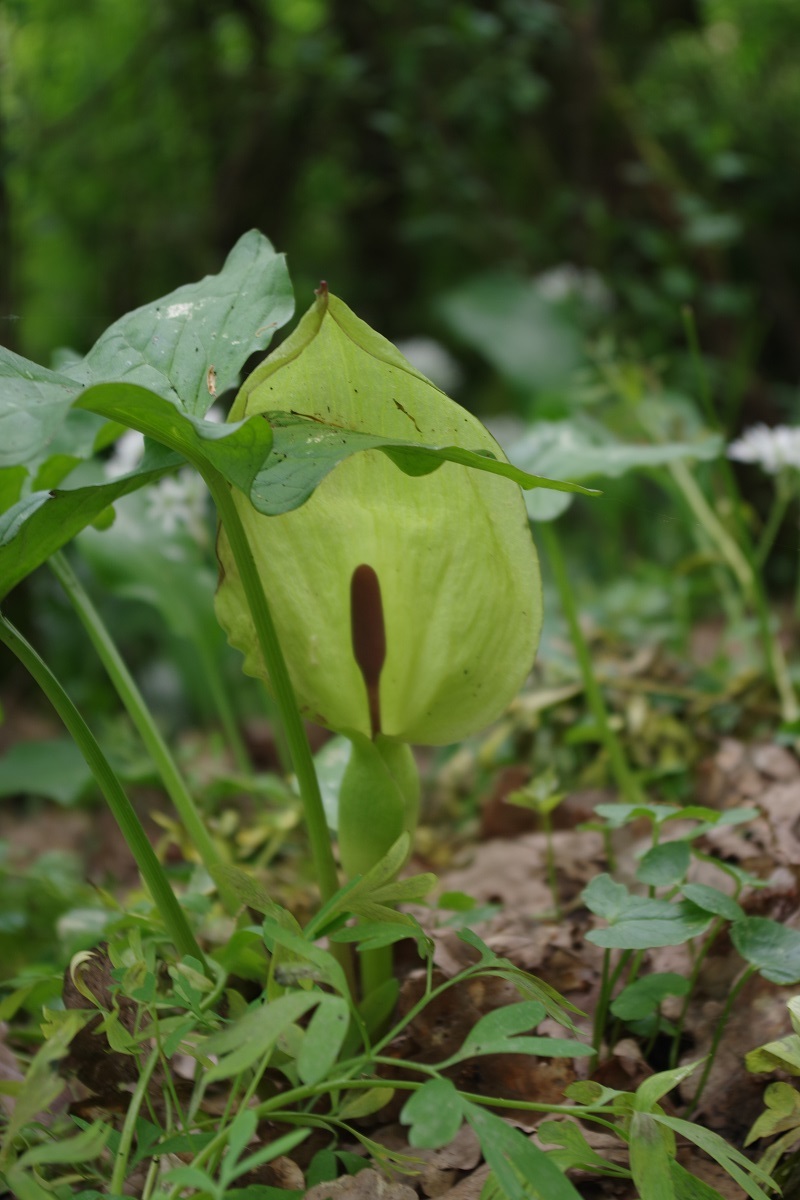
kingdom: Plantae
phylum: Tracheophyta
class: Liliopsida
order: Alismatales
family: Araceae
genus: Arum
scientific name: Arum maculatum
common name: Lords-and-ladies
